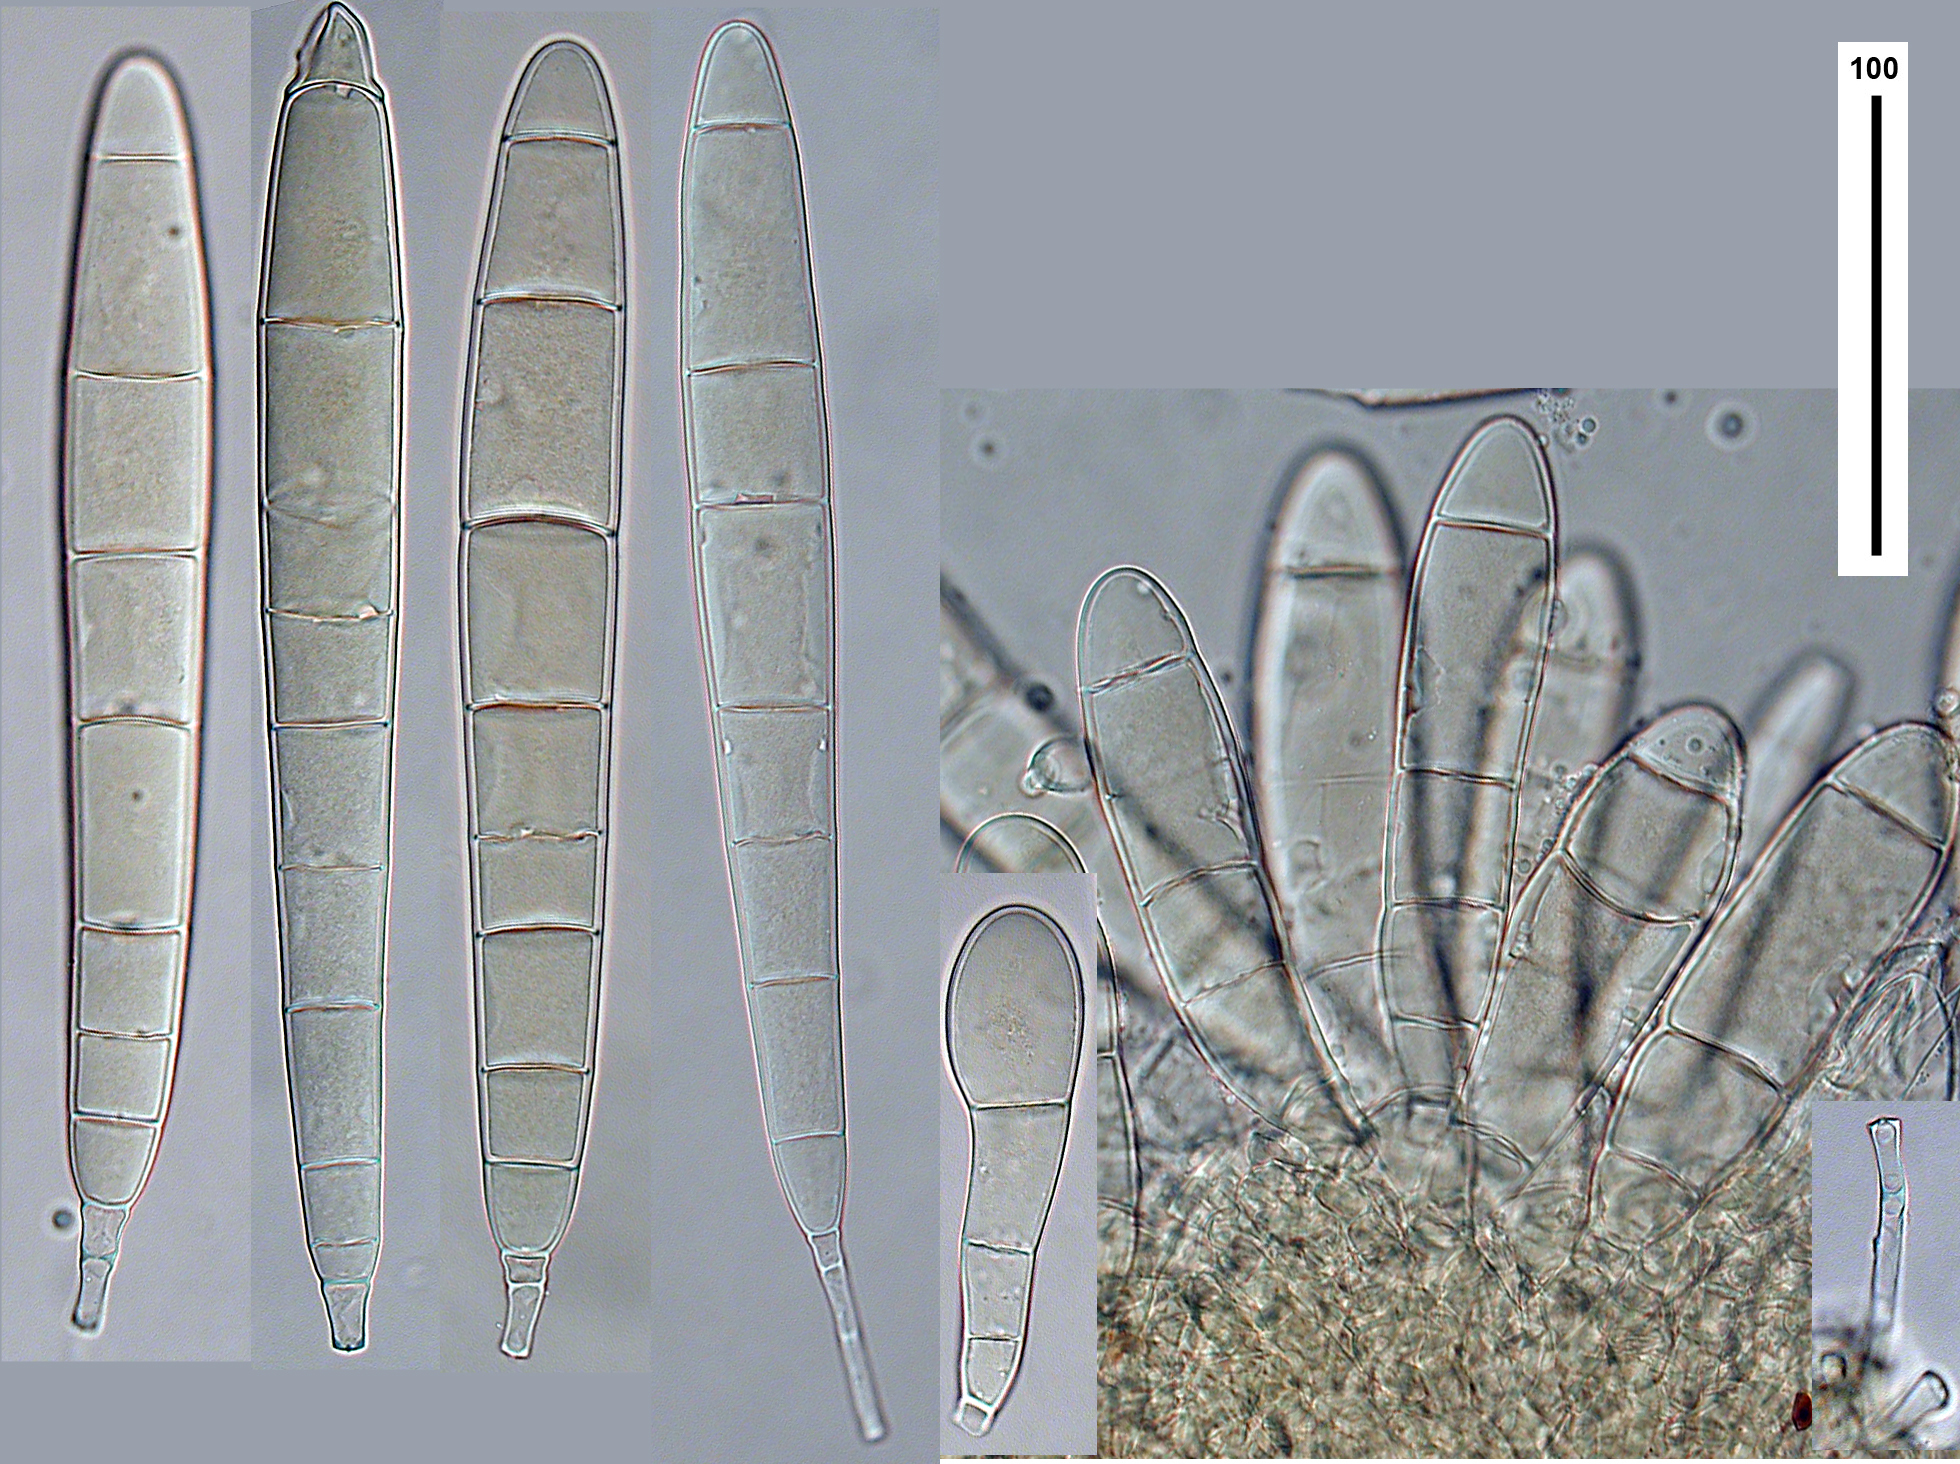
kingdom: Fungi
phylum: Ascomycota
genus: Bactridium
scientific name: Bactridium clavatum
